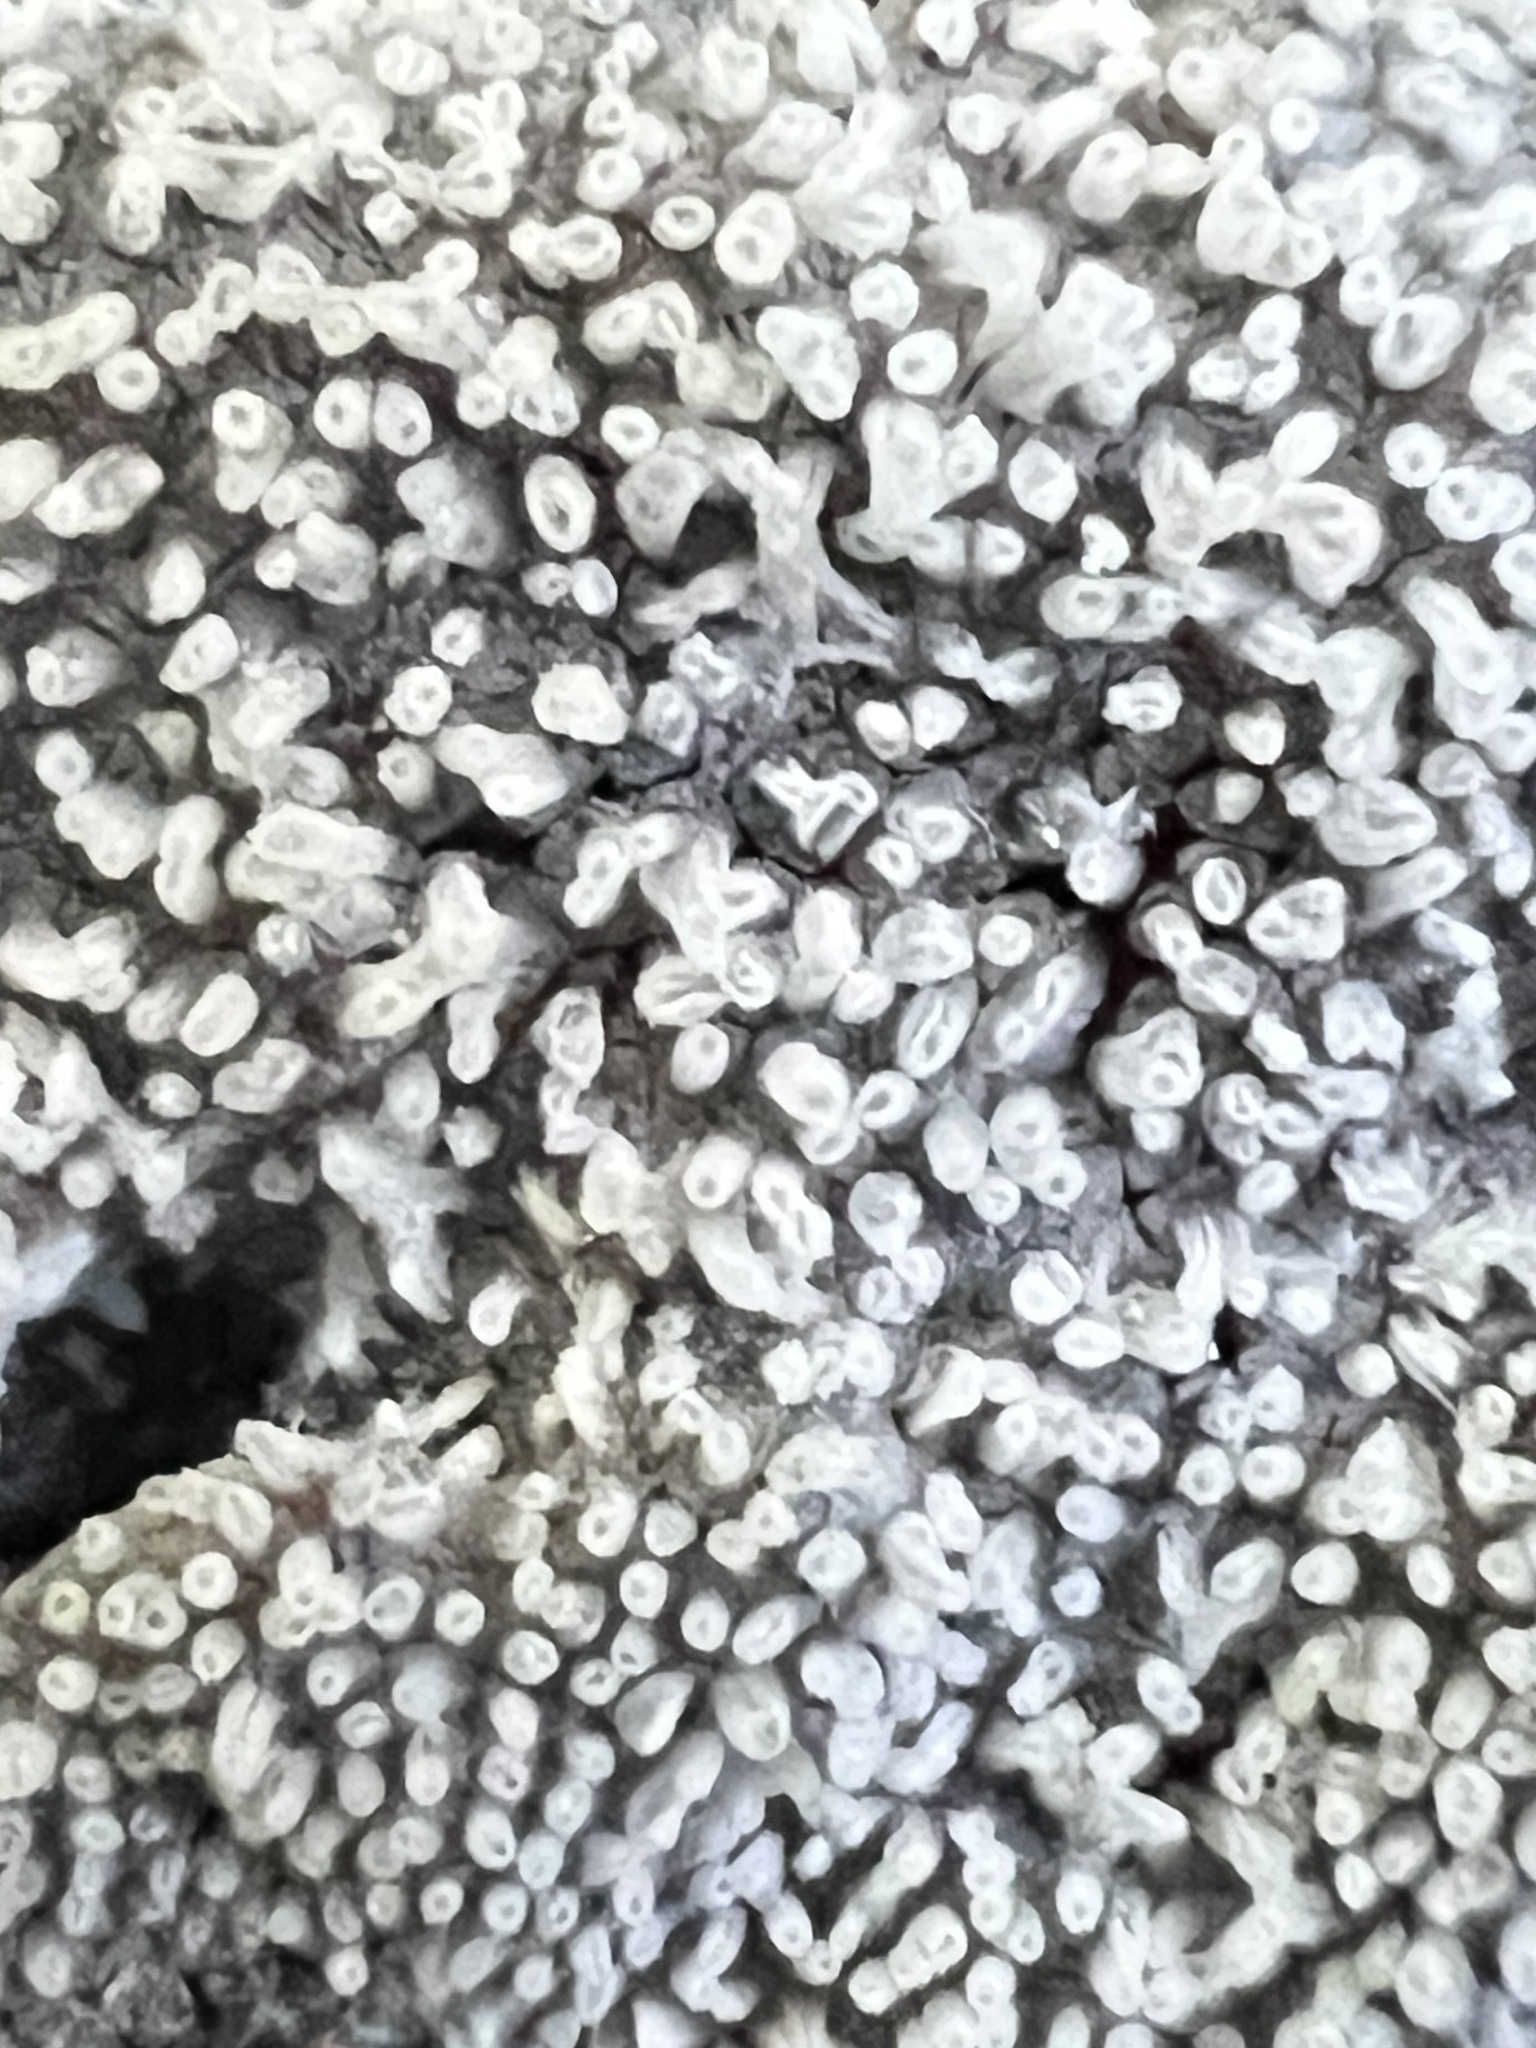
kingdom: Protozoa
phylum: Mycetozoa
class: Protosteliomycetes
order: Ceratiomyxales
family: Ceratiomyxaceae
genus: Ceratiomyxa
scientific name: Ceratiomyxa fruticulosa
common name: Honeycomb coral slime mold
